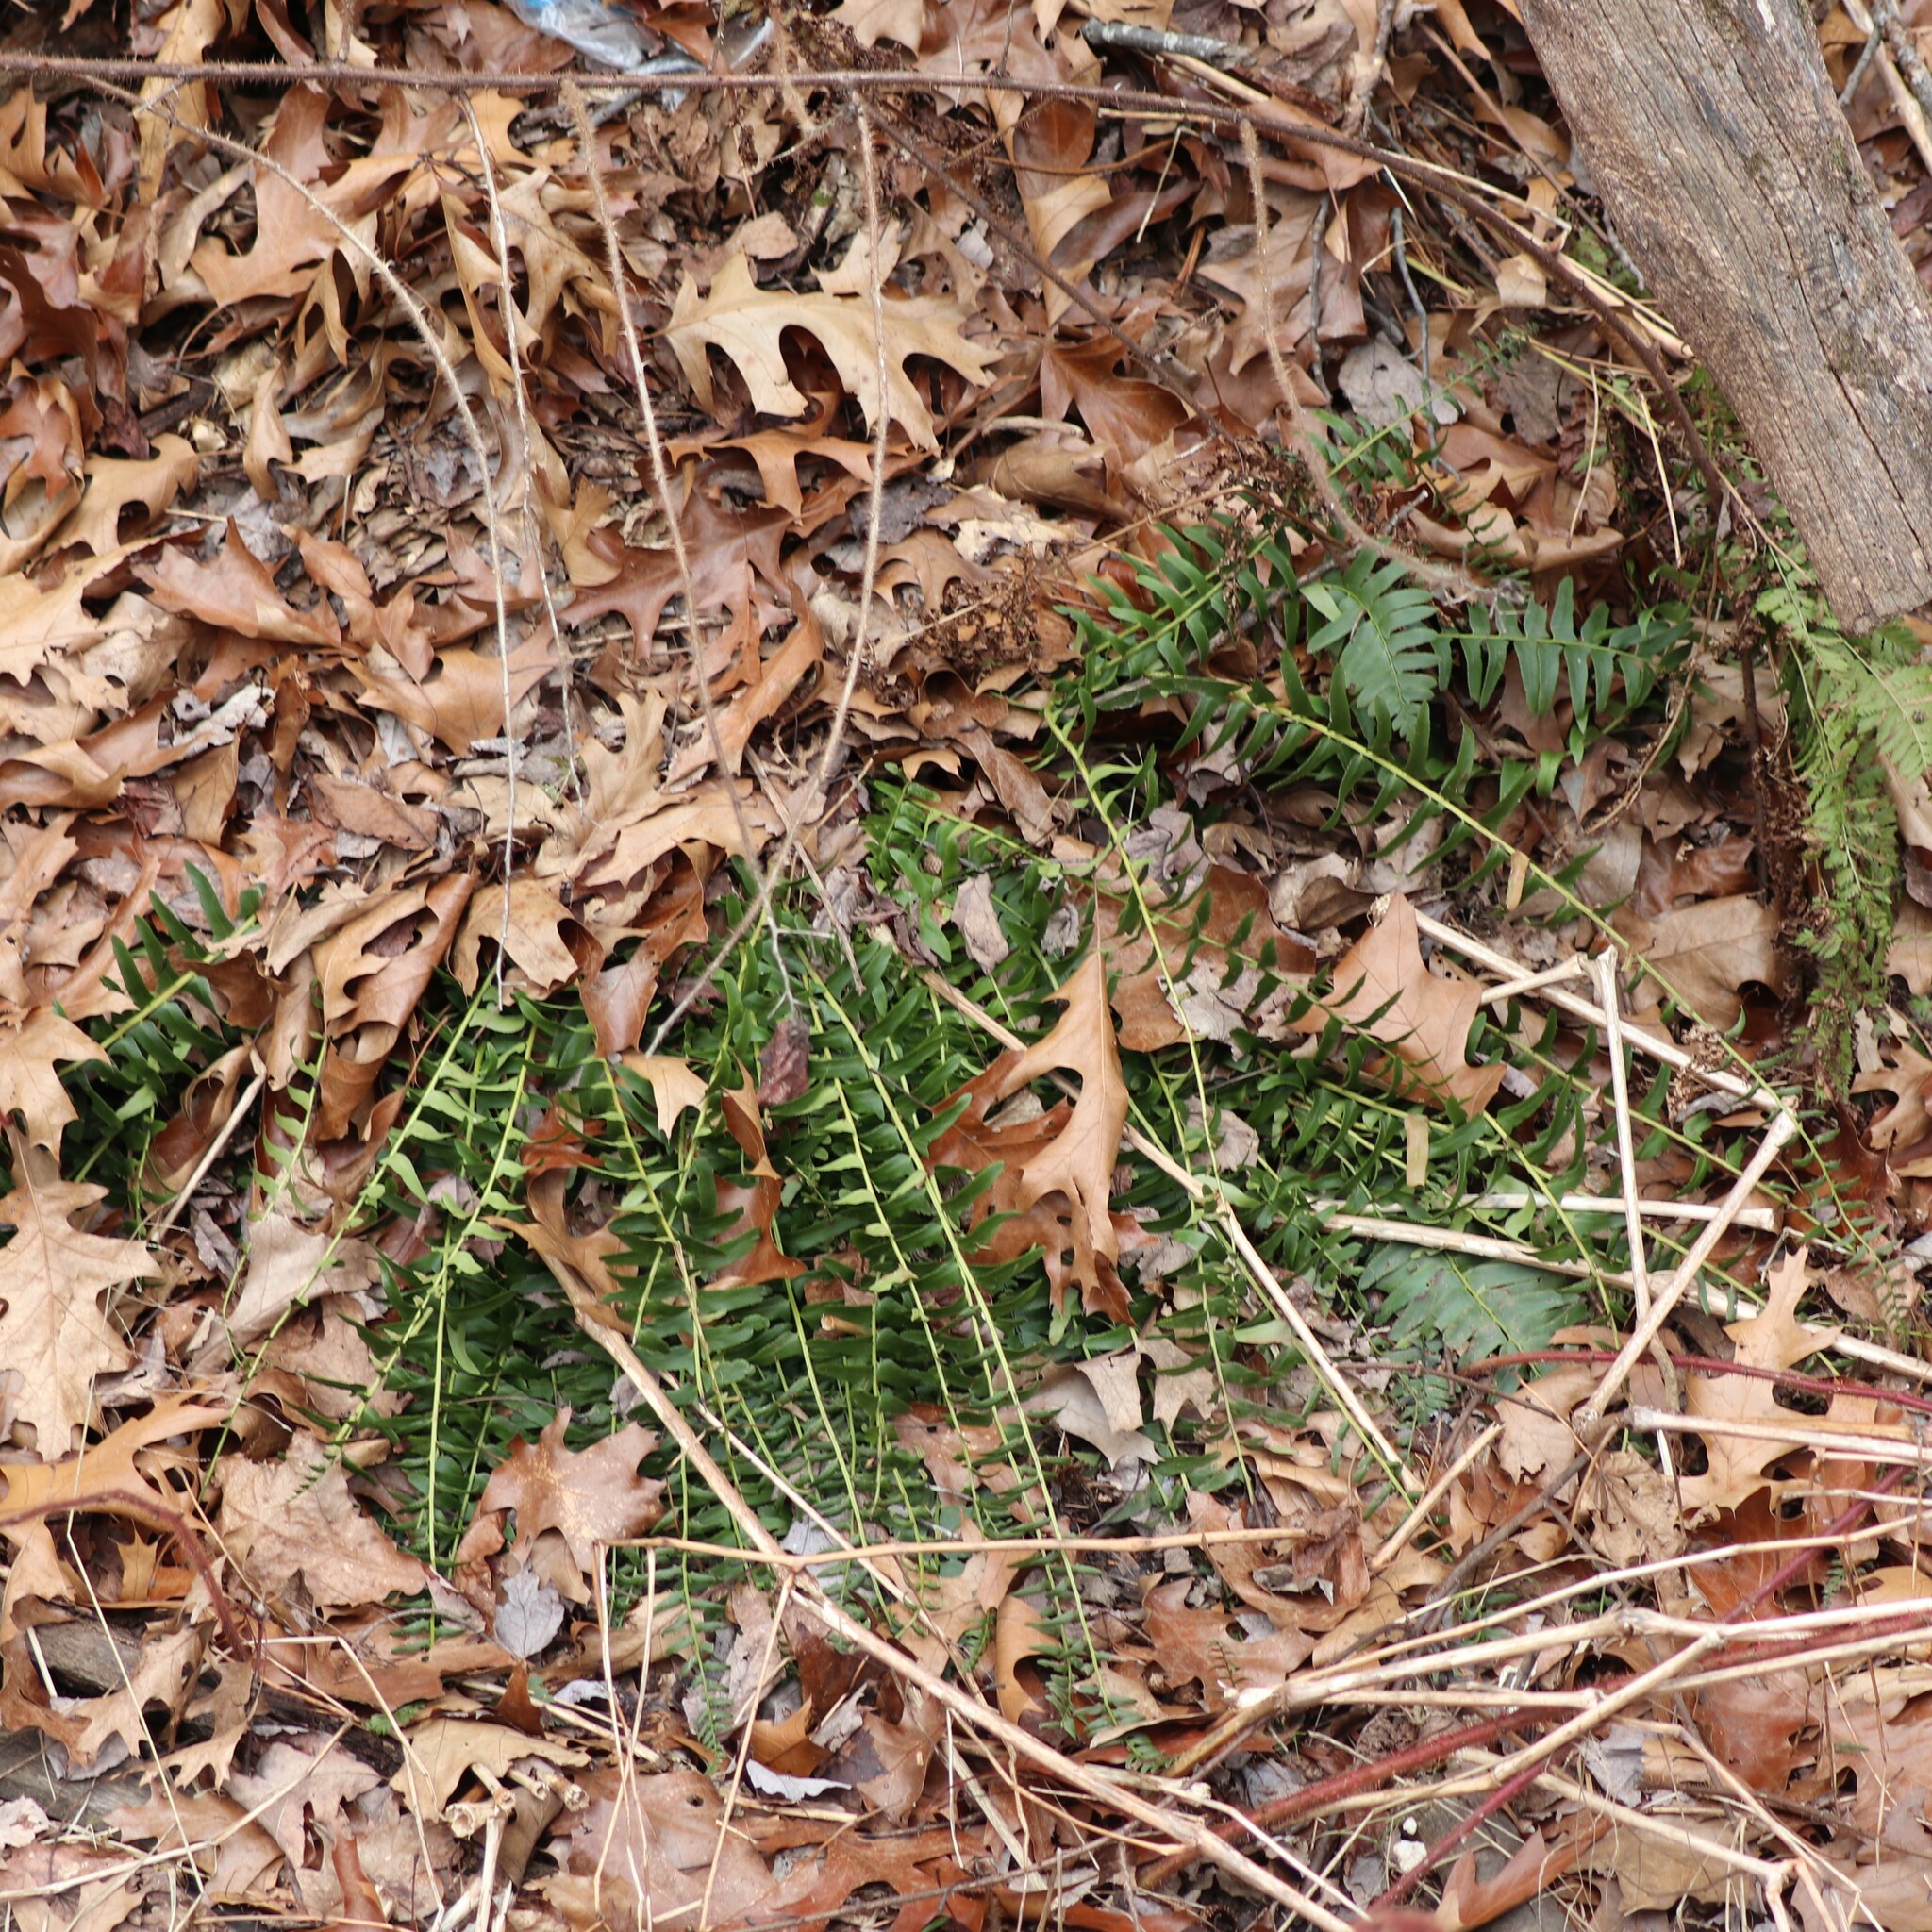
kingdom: Plantae
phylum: Tracheophyta
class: Polypodiopsida
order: Polypodiales
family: Dryopteridaceae
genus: Polystichum
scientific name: Polystichum acrostichoides
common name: Christmas fern
